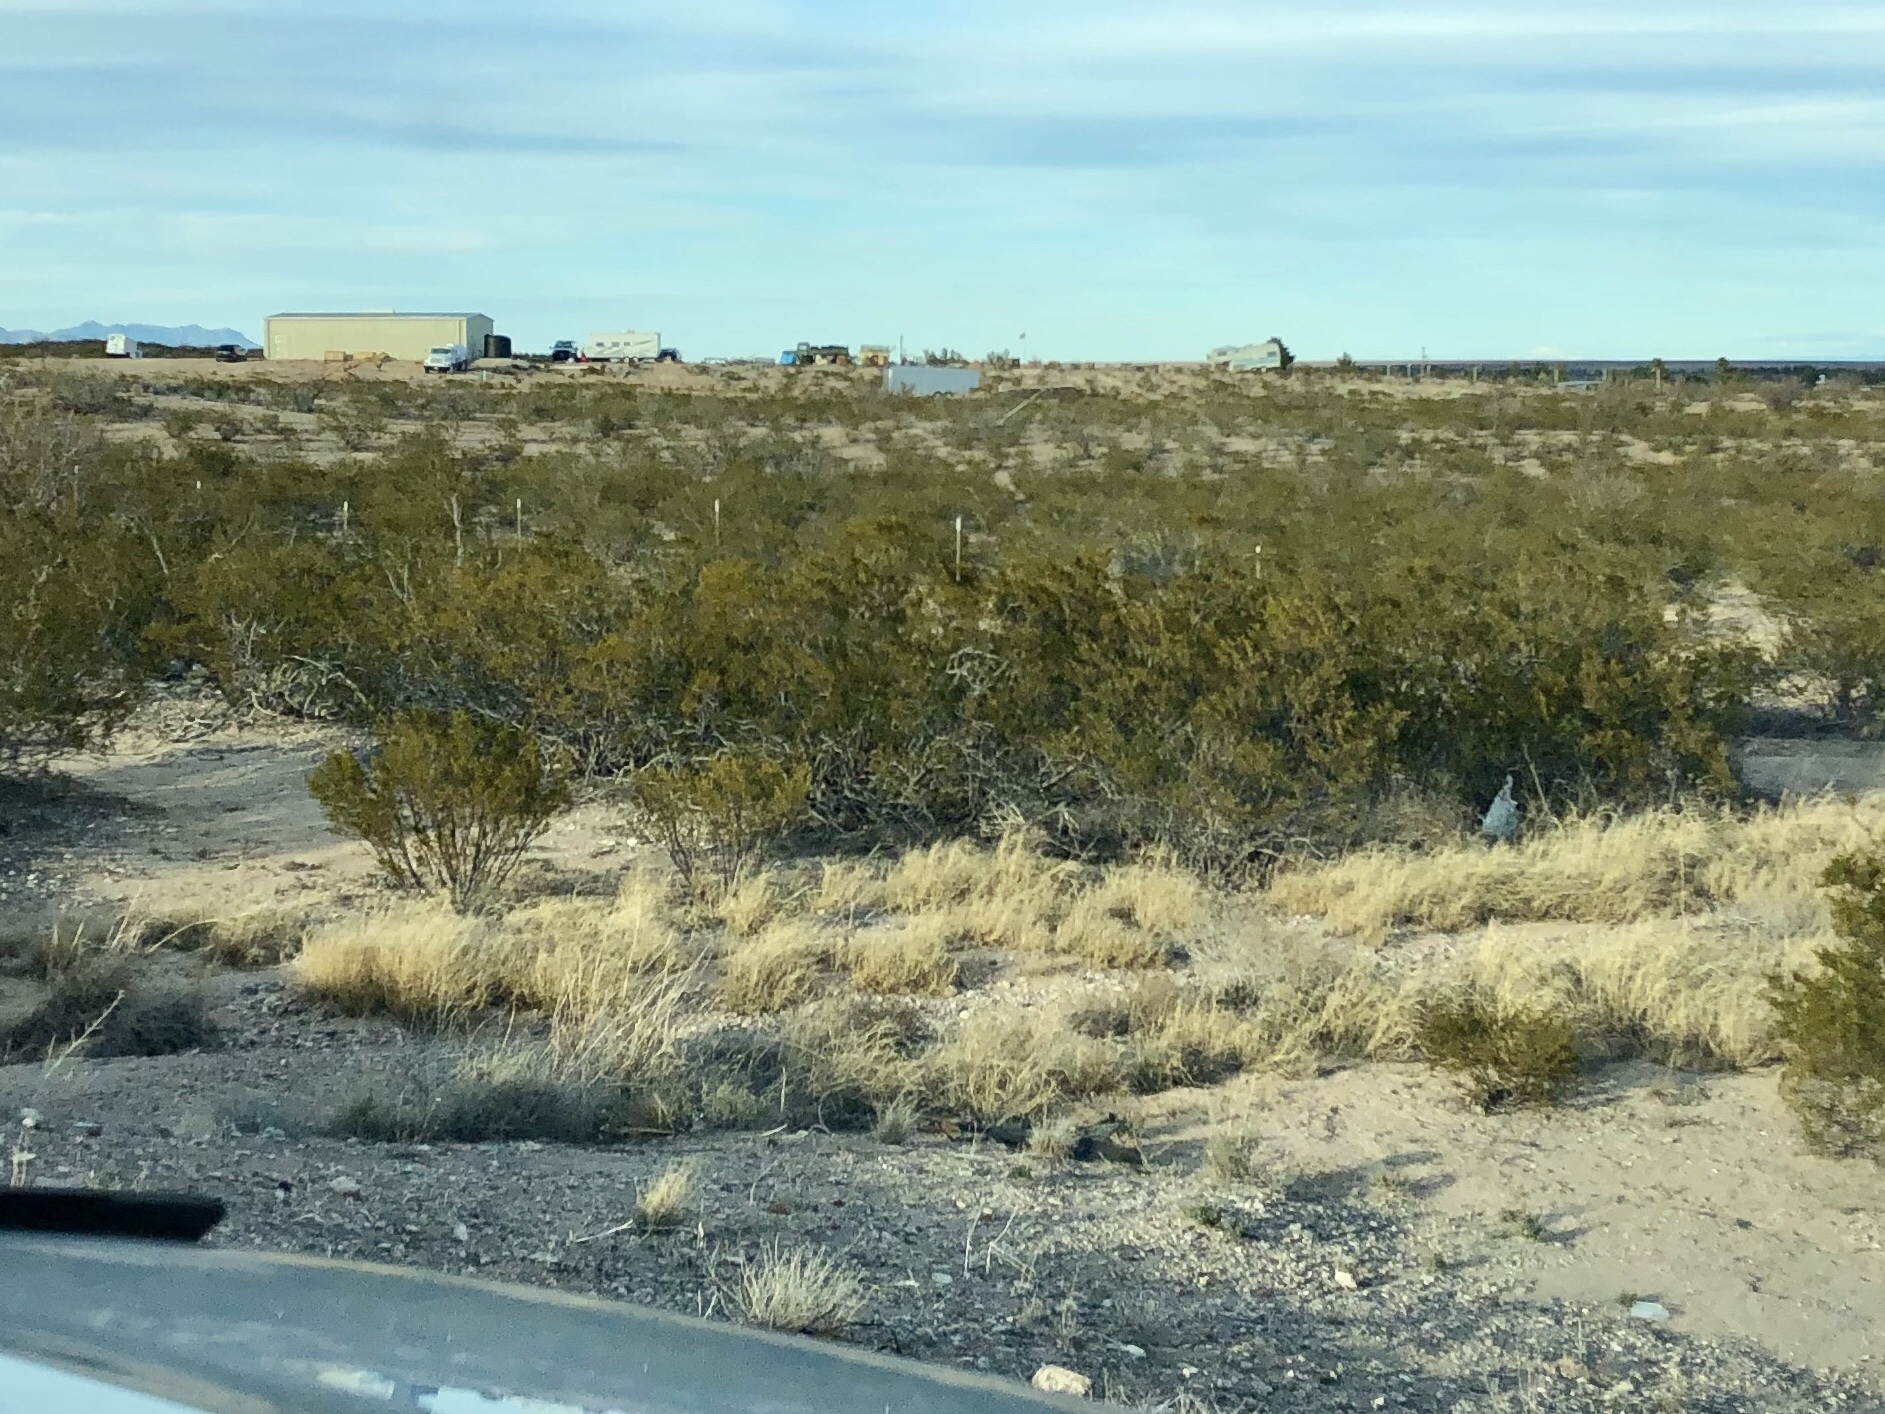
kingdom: Plantae
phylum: Tracheophyta
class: Magnoliopsida
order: Zygophyllales
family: Zygophyllaceae
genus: Larrea
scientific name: Larrea tridentata
